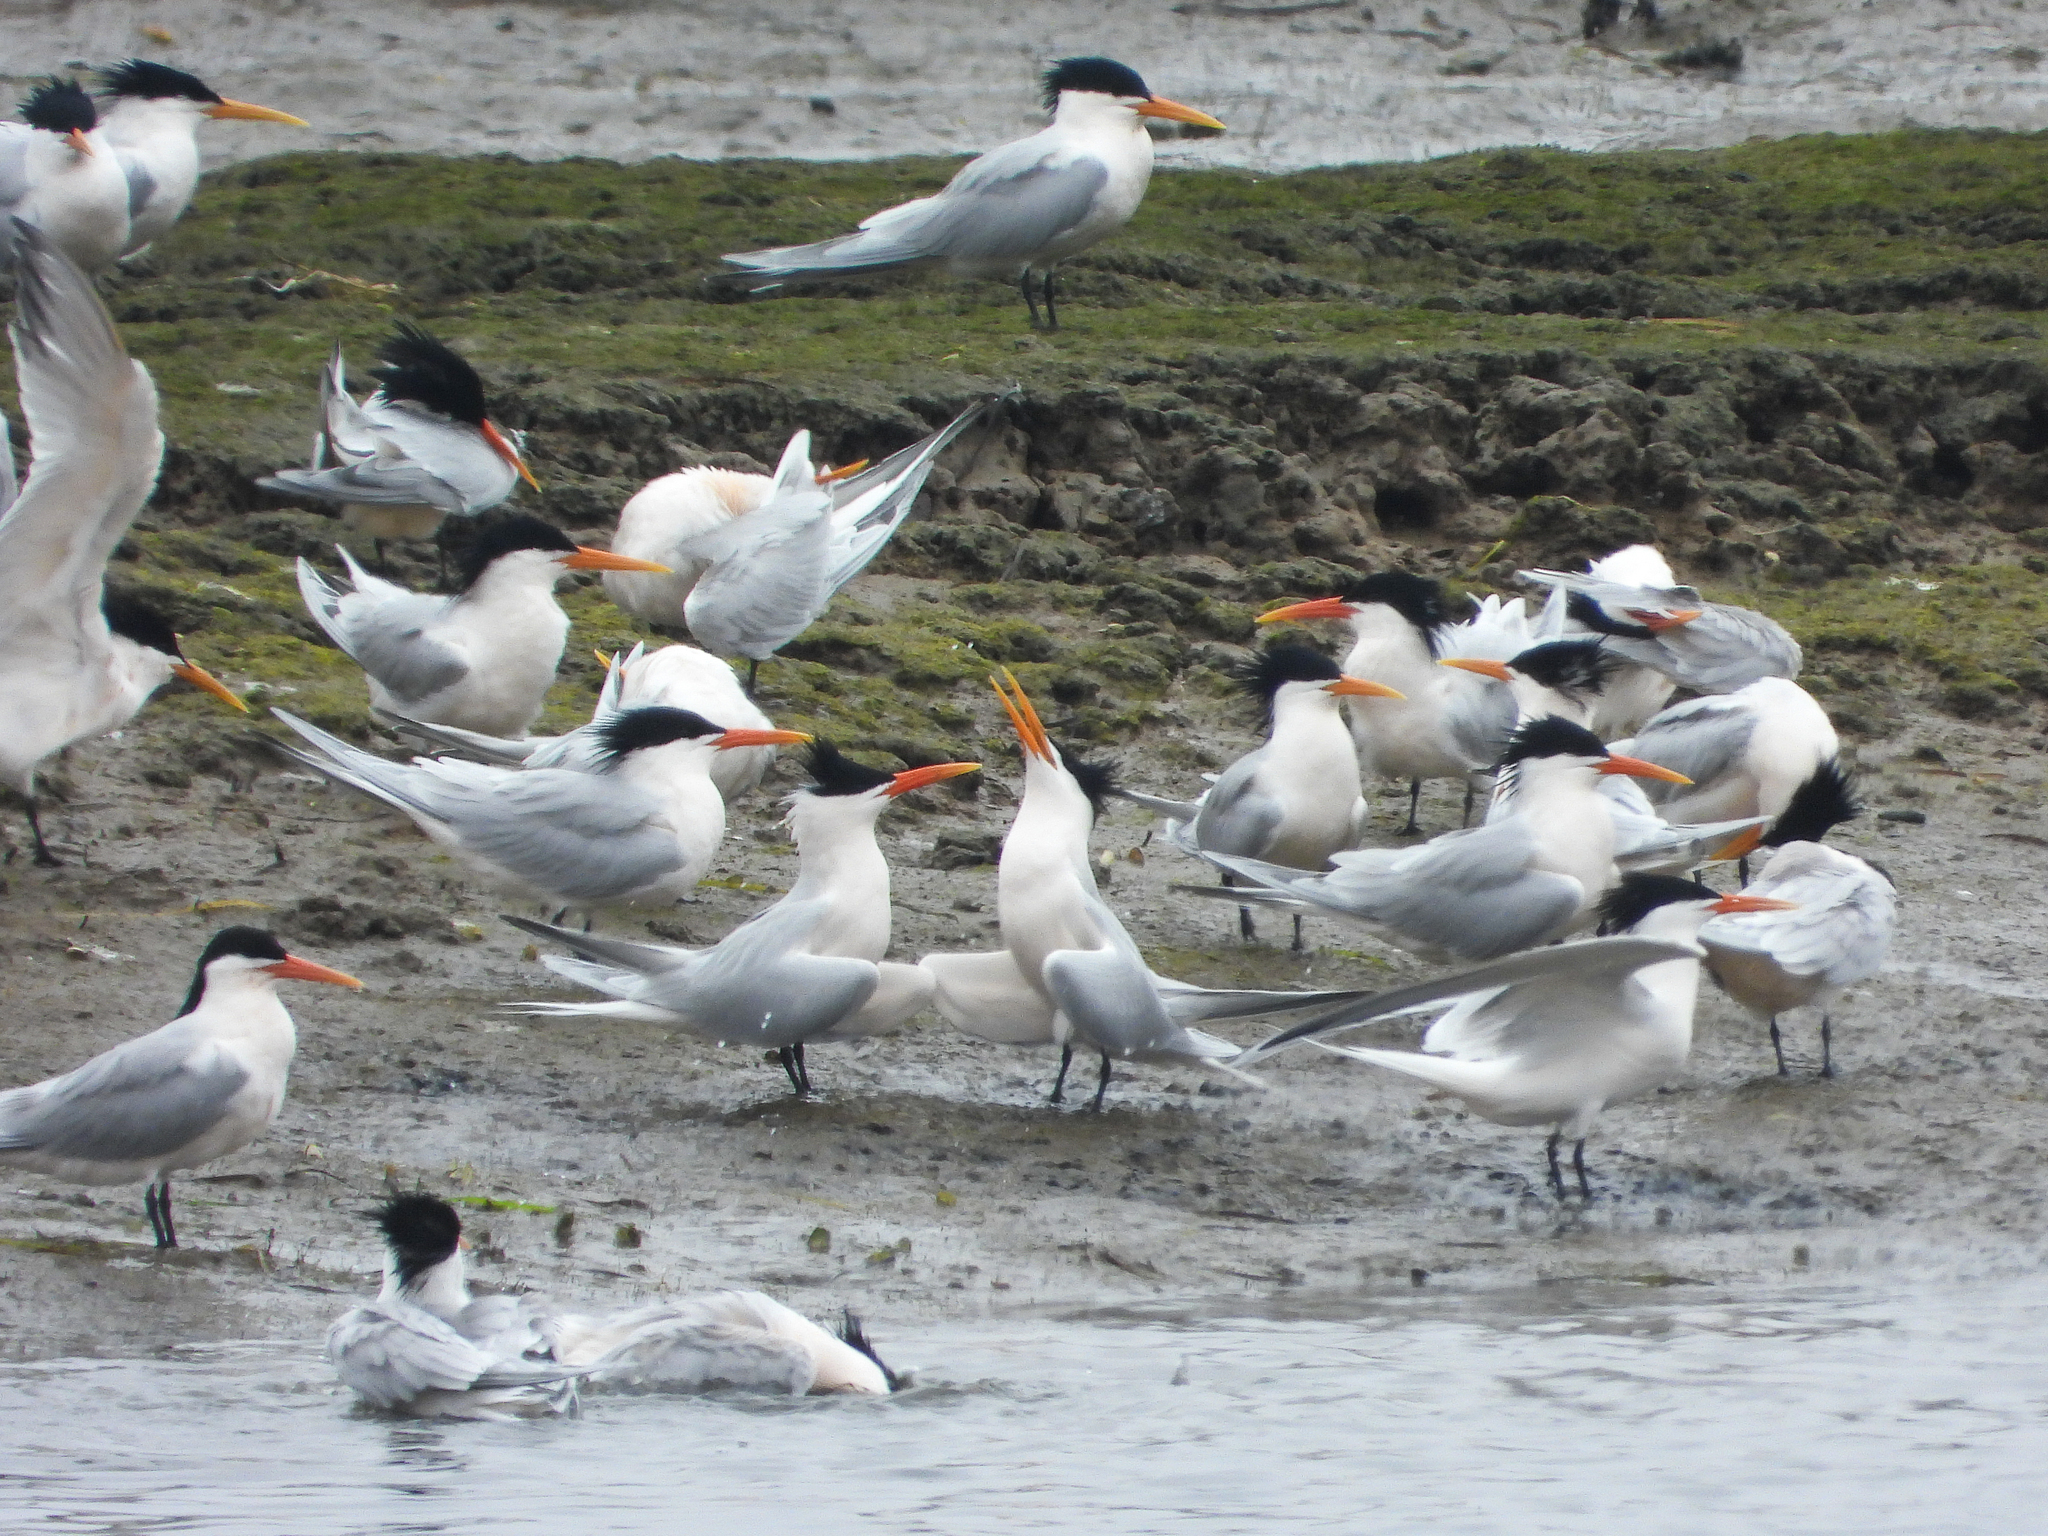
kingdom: Animalia
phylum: Chordata
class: Aves
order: Charadriiformes
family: Laridae
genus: Thalasseus
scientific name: Thalasseus elegans
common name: Elegant tern
